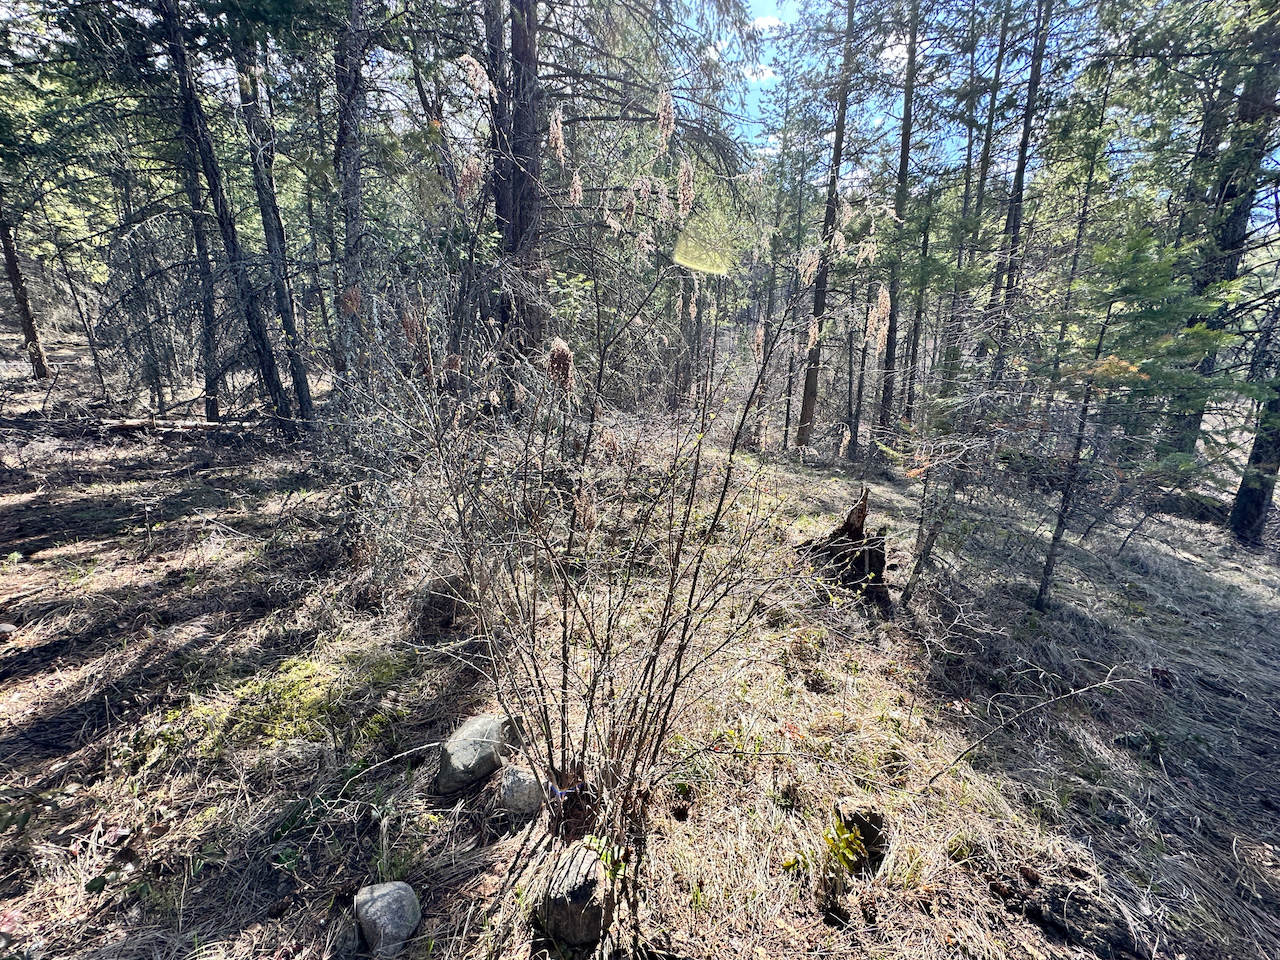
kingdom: Plantae
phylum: Tracheophyta
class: Magnoliopsida
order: Rosales
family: Rosaceae
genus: Holodiscus
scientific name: Holodiscus discolor
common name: Oceanspray
